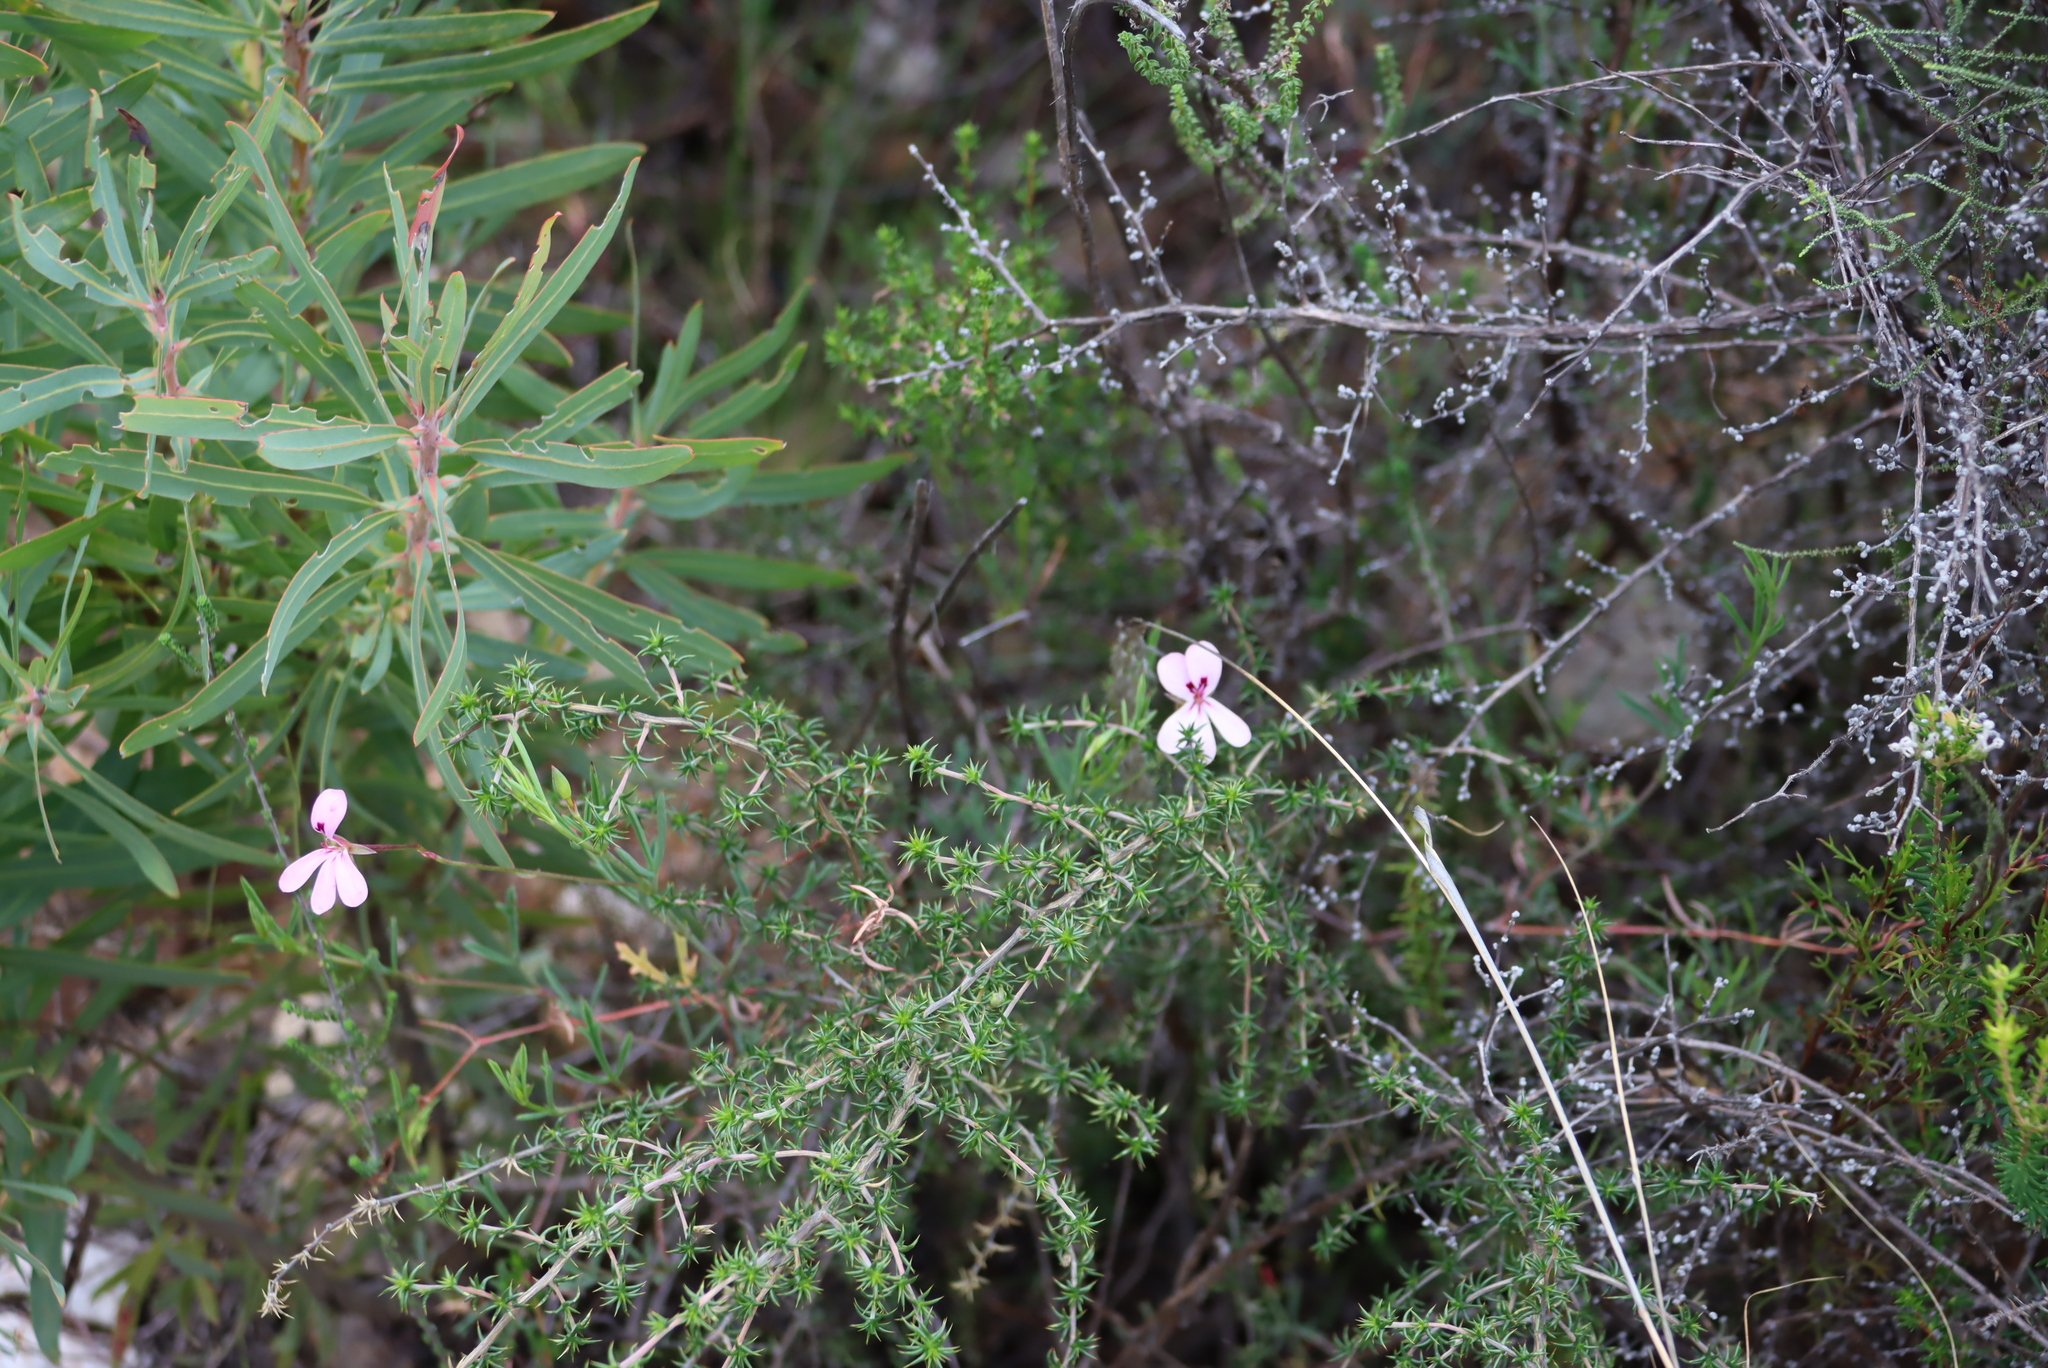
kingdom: Plantae
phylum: Tracheophyta
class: Magnoliopsida
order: Geraniales
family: Geraniaceae
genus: Pelargonium
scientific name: Pelargonium laevigatum
